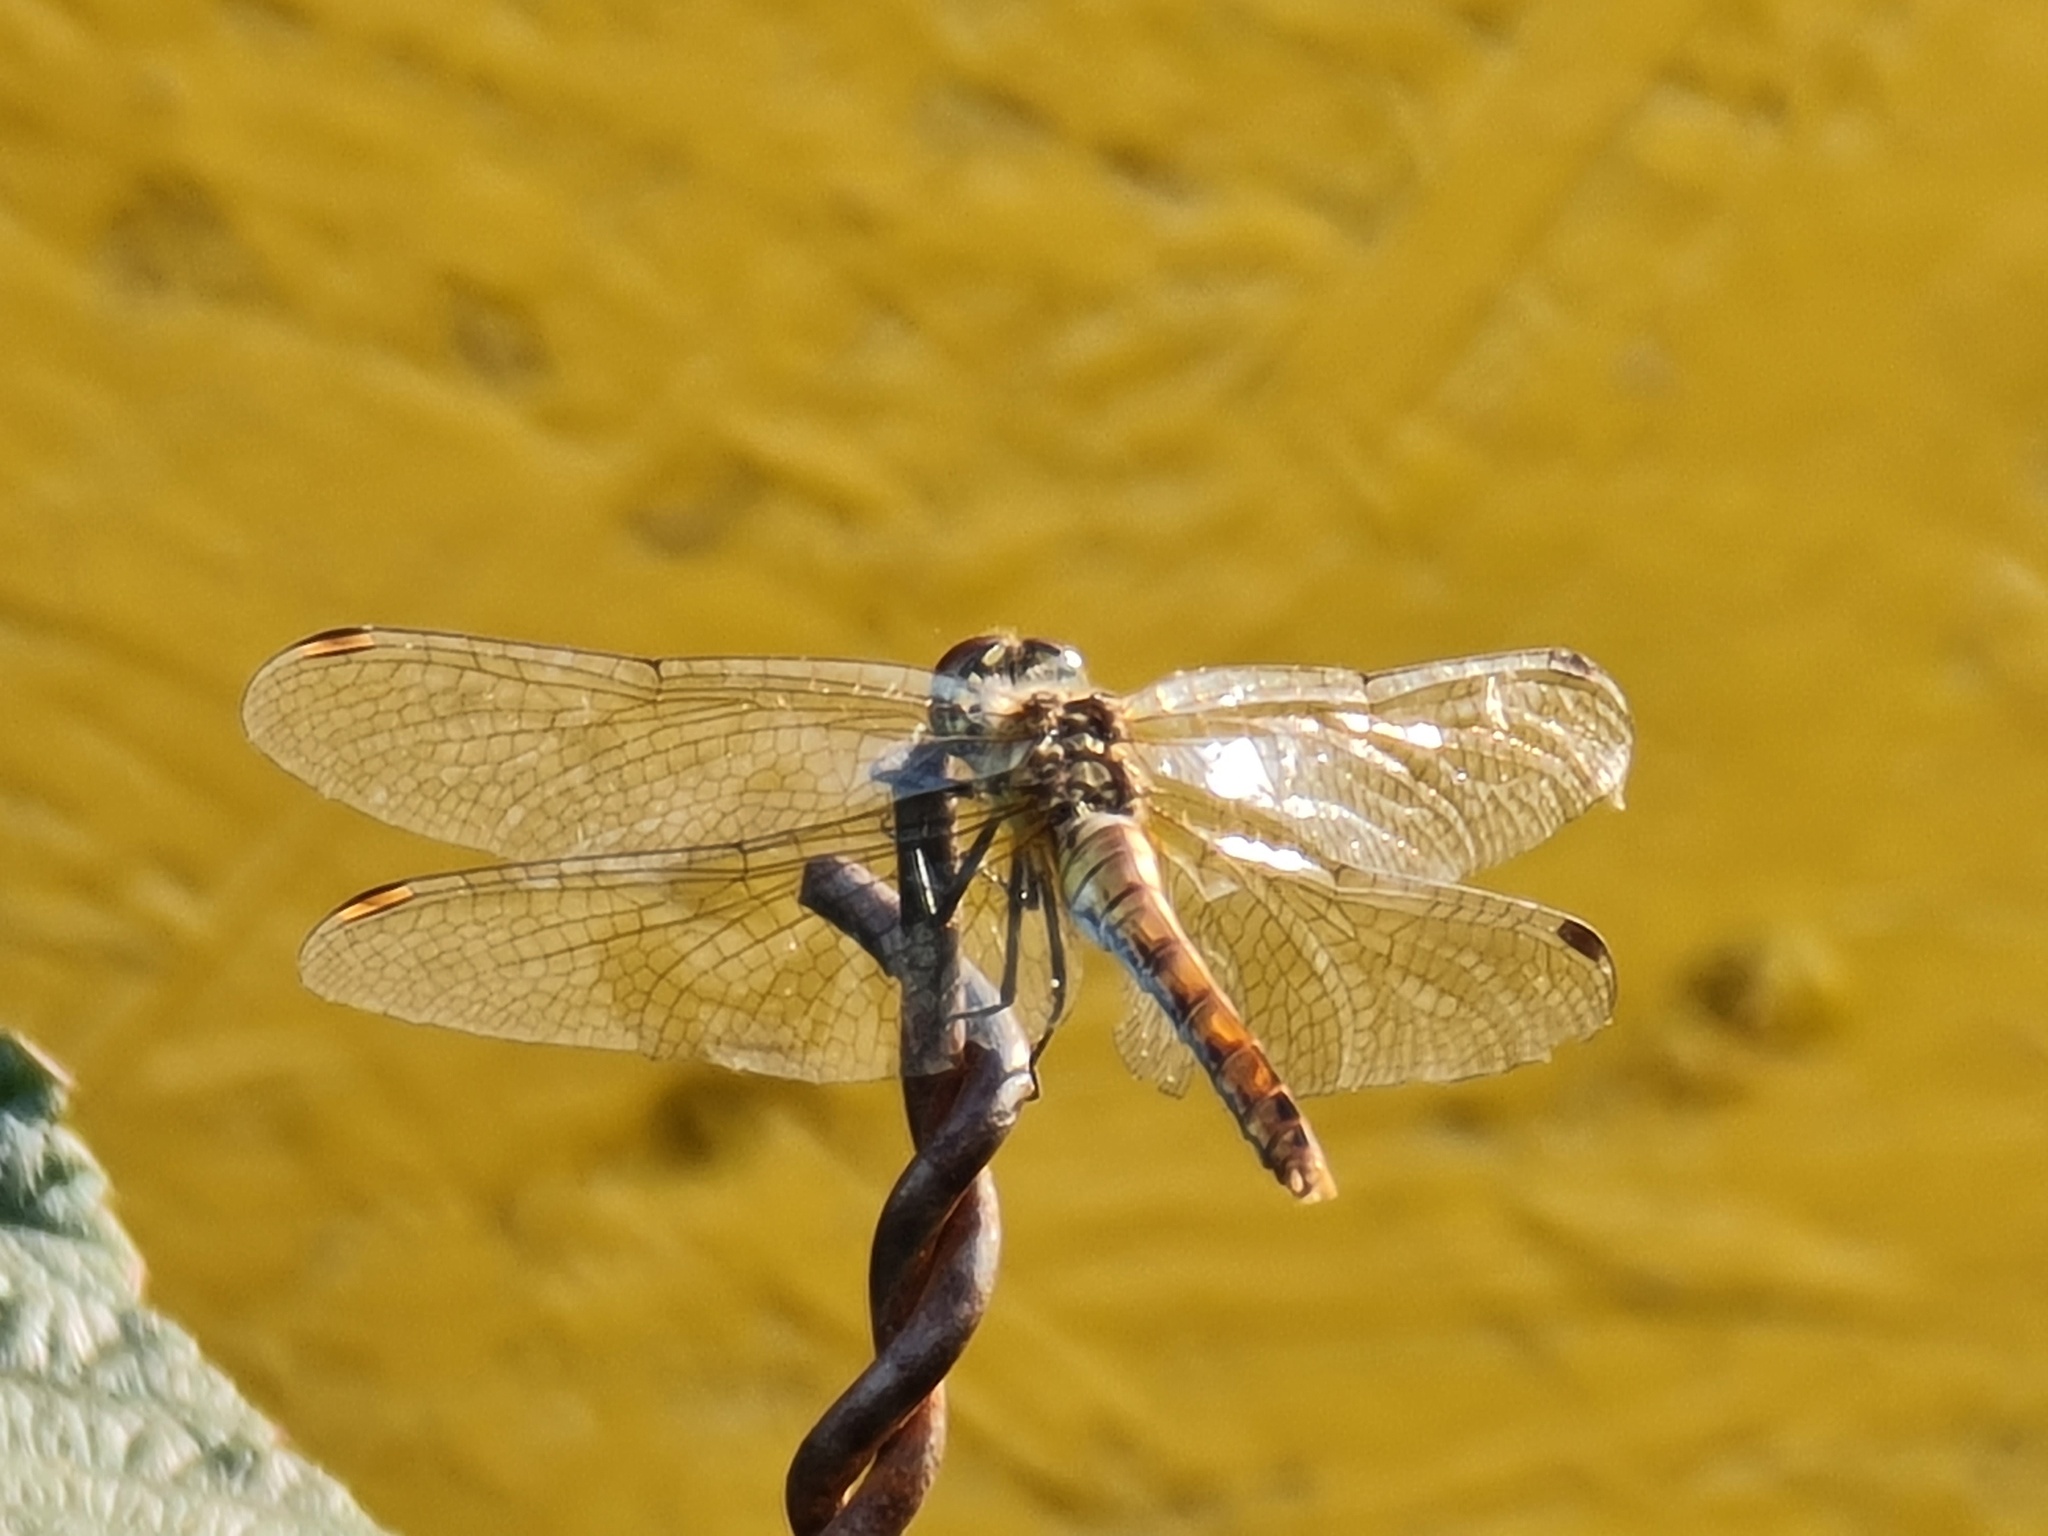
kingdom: Animalia
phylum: Arthropoda
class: Insecta
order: Odonata
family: Libellulidae
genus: Sympetrum
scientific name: Sympetrum sanguineum
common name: Ruddy darter
